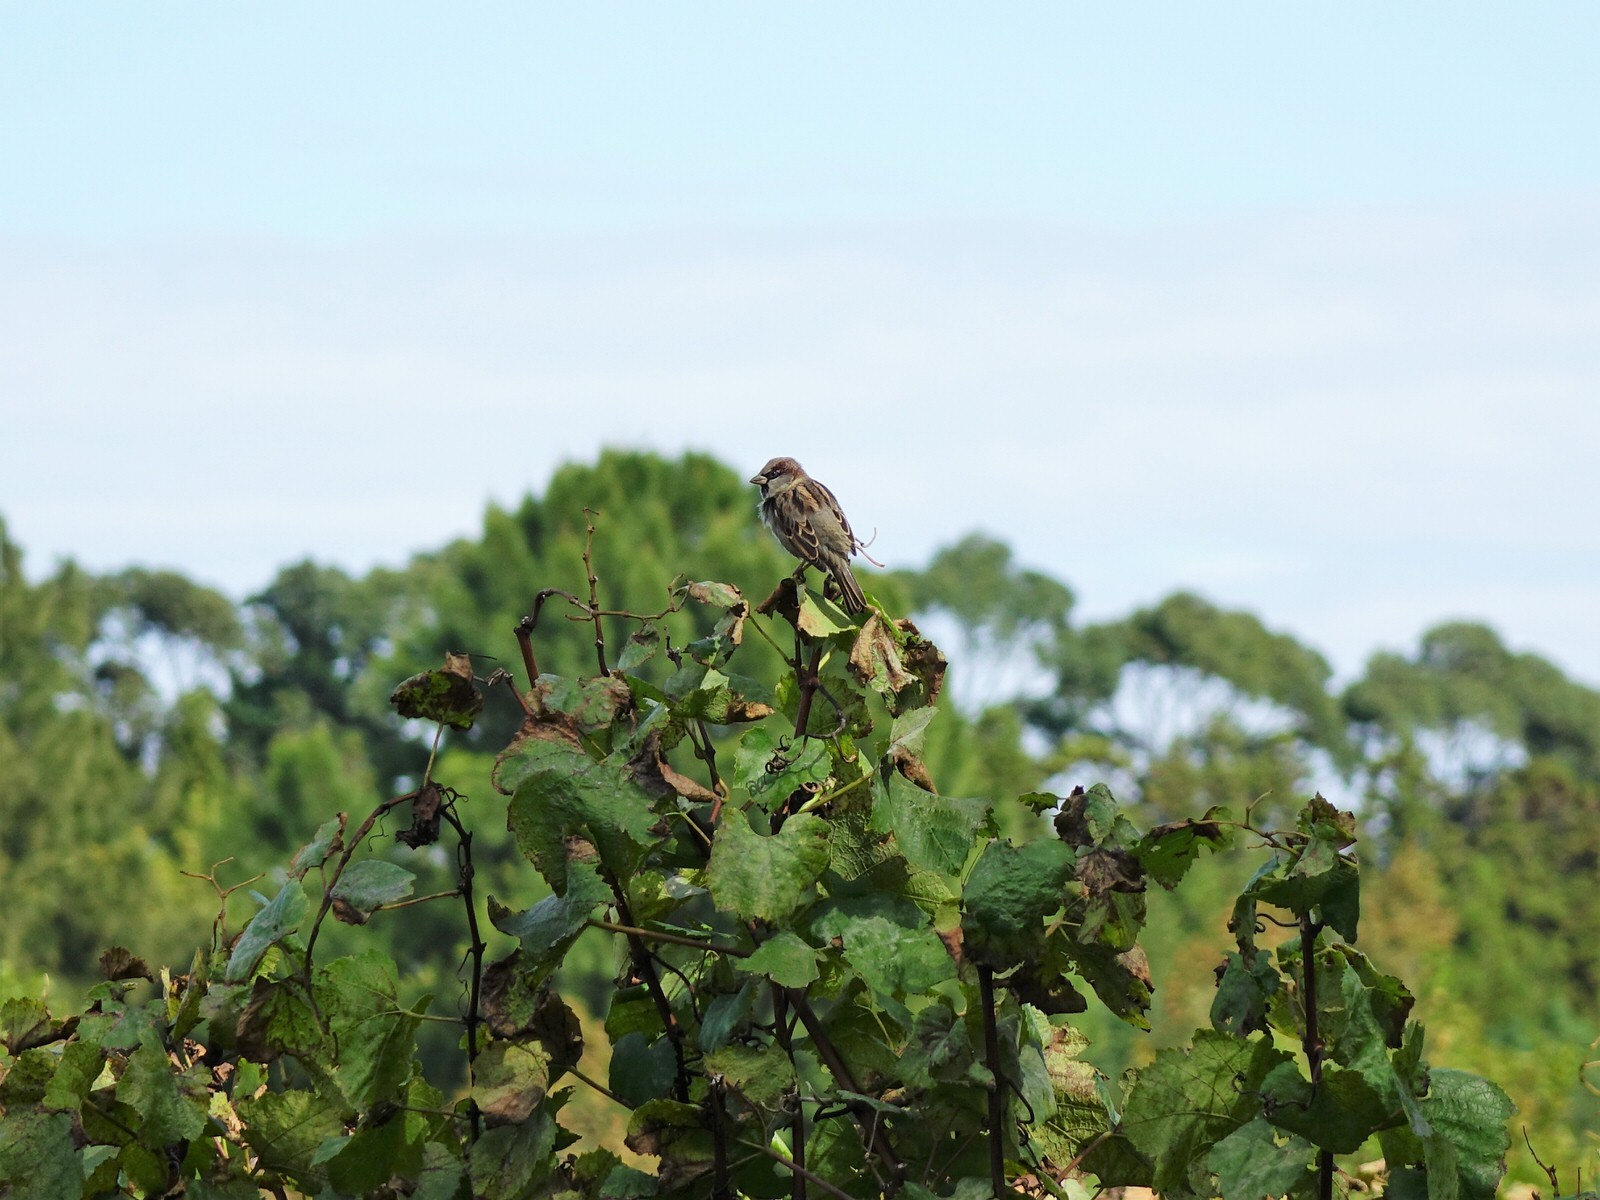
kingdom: Animalia
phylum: Chordata
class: Aves
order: Passeriformes
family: Passeridae
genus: Passer
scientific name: Passer domesticus
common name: House sparrow
